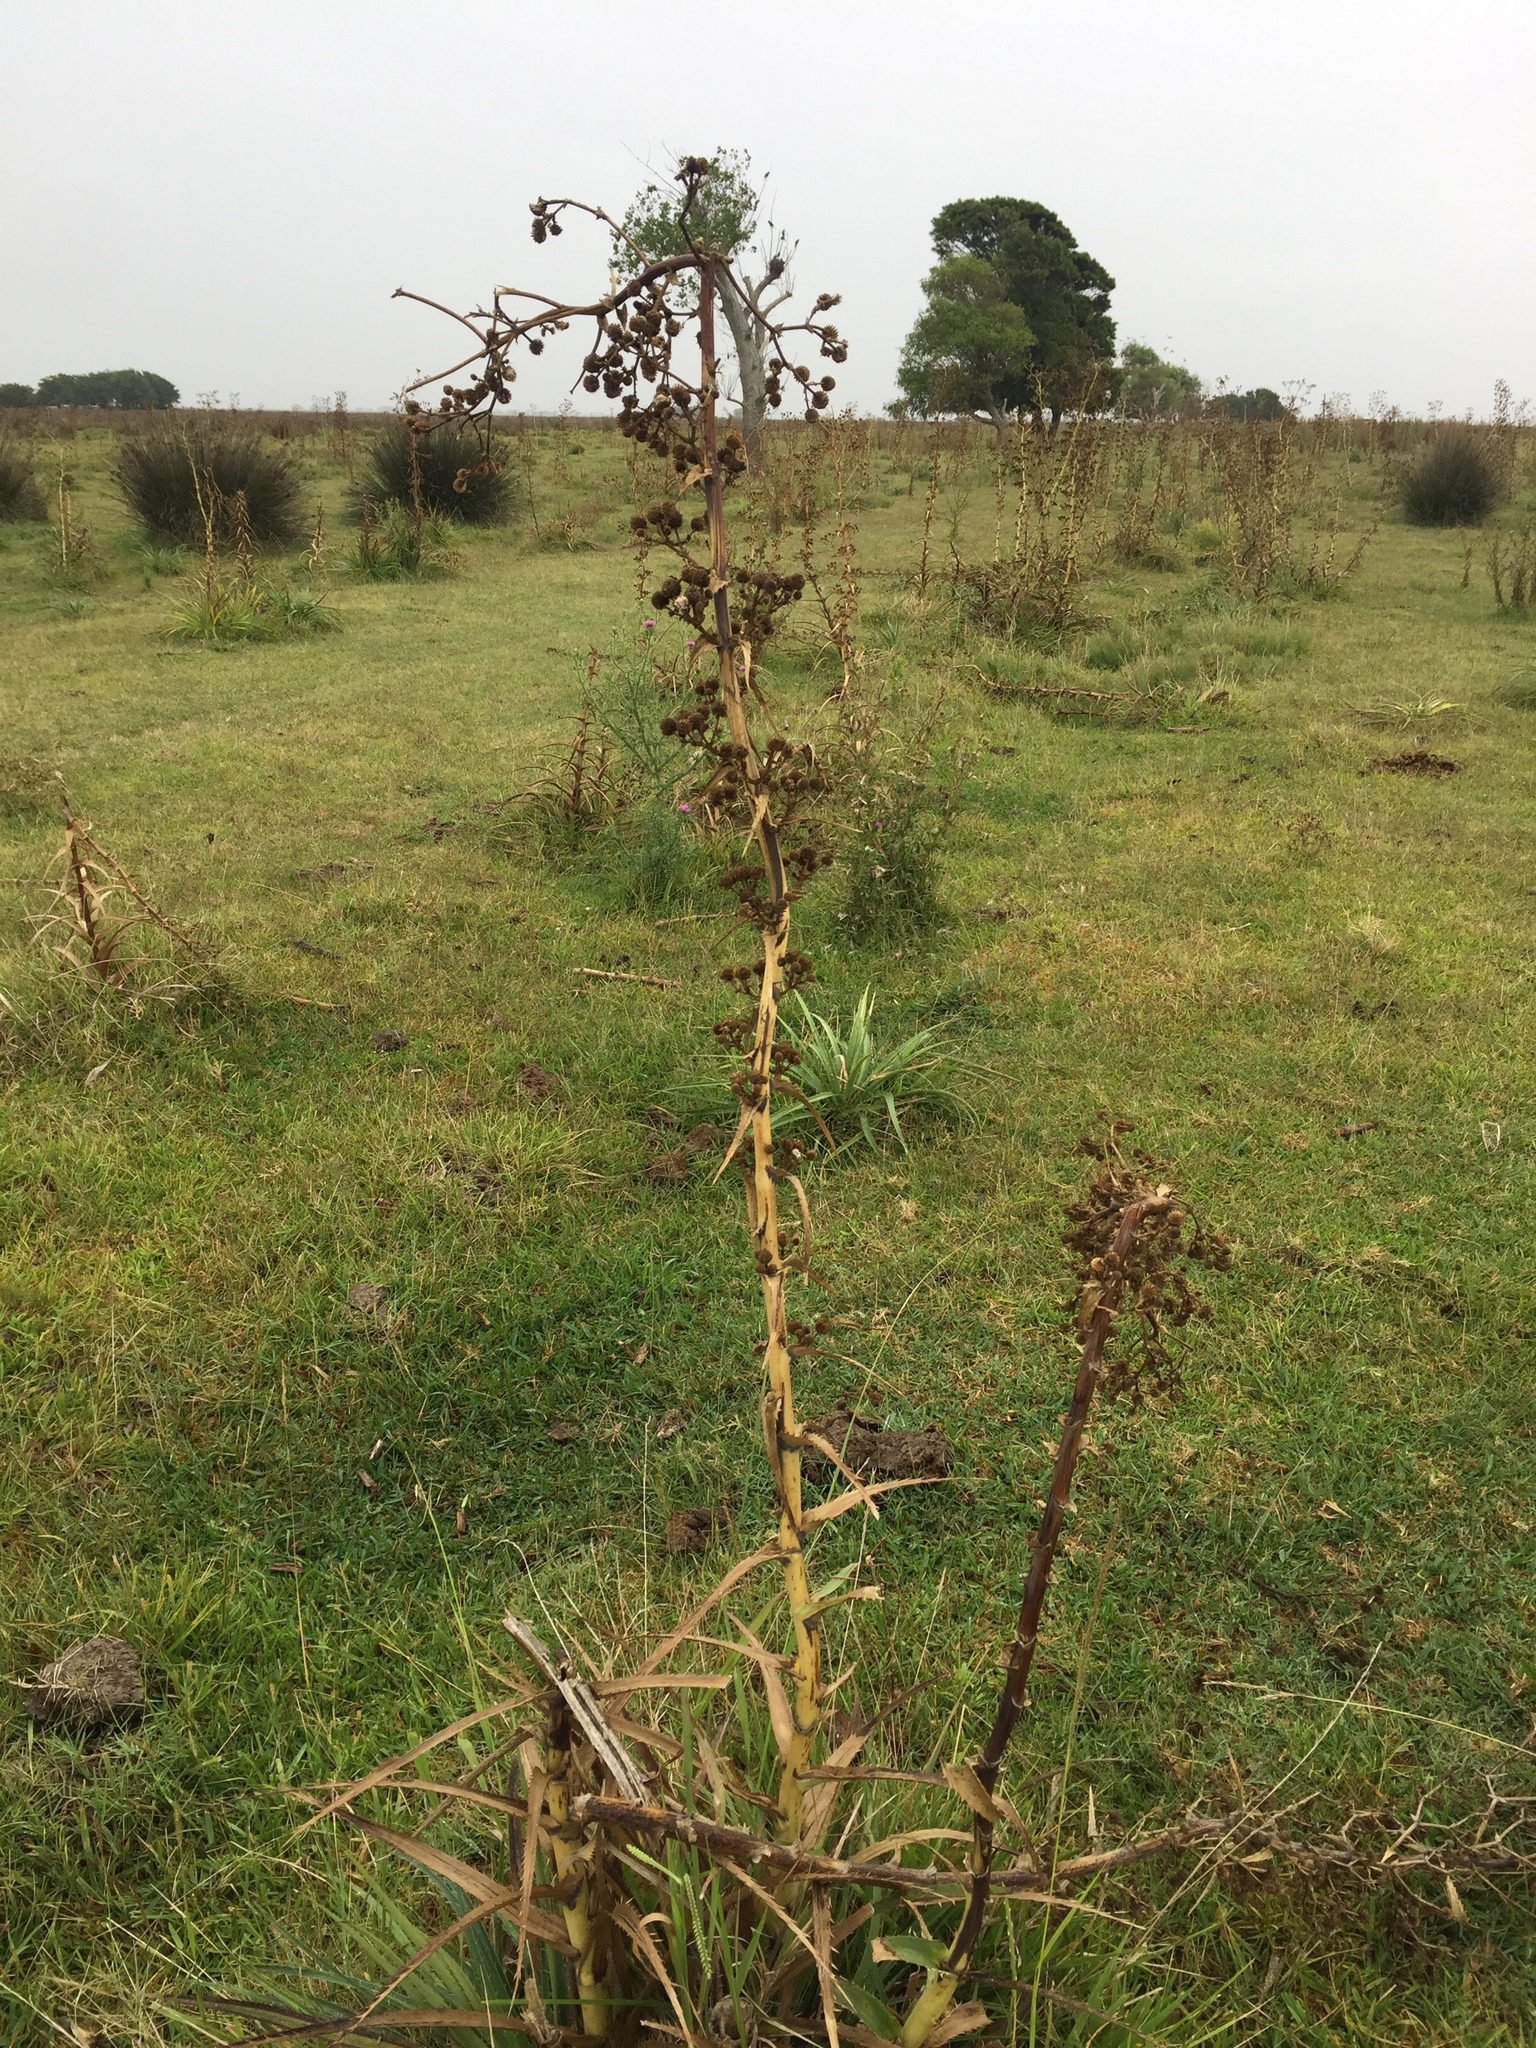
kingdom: Plantae
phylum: Tracheophyta
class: Magnoliopsida
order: Apiales
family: Apiaceae
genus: Eryngium
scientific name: Eryngium humboldtii
